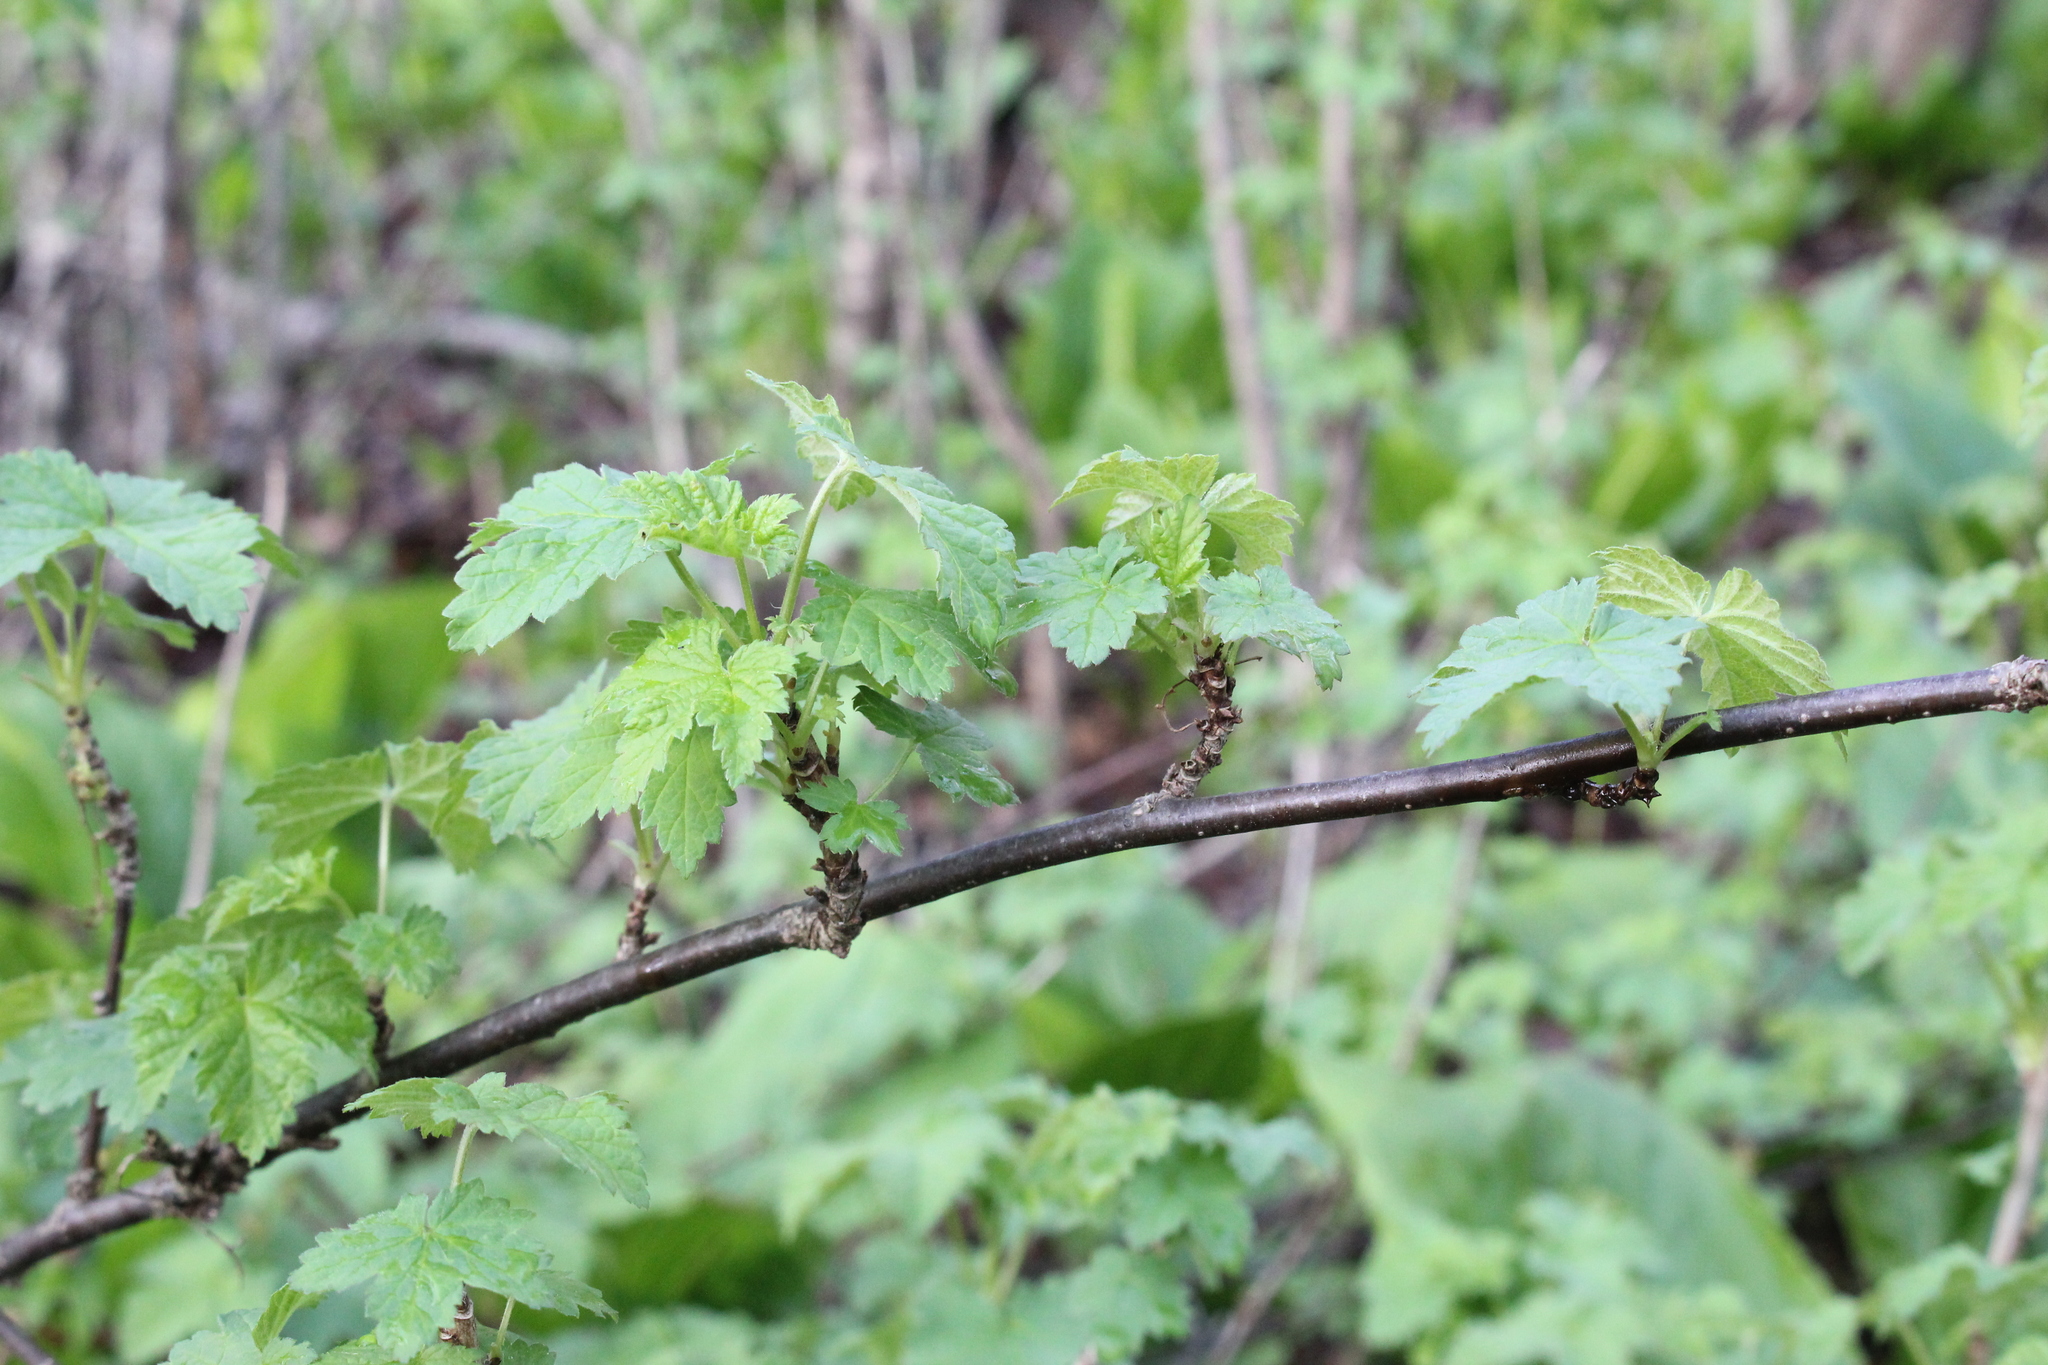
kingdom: Plantae
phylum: Tracheophyta
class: Magnoliopsida
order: Saxifragales
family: Grossulariaceae
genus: Ribes
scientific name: Ribes rubrum
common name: Red currant
